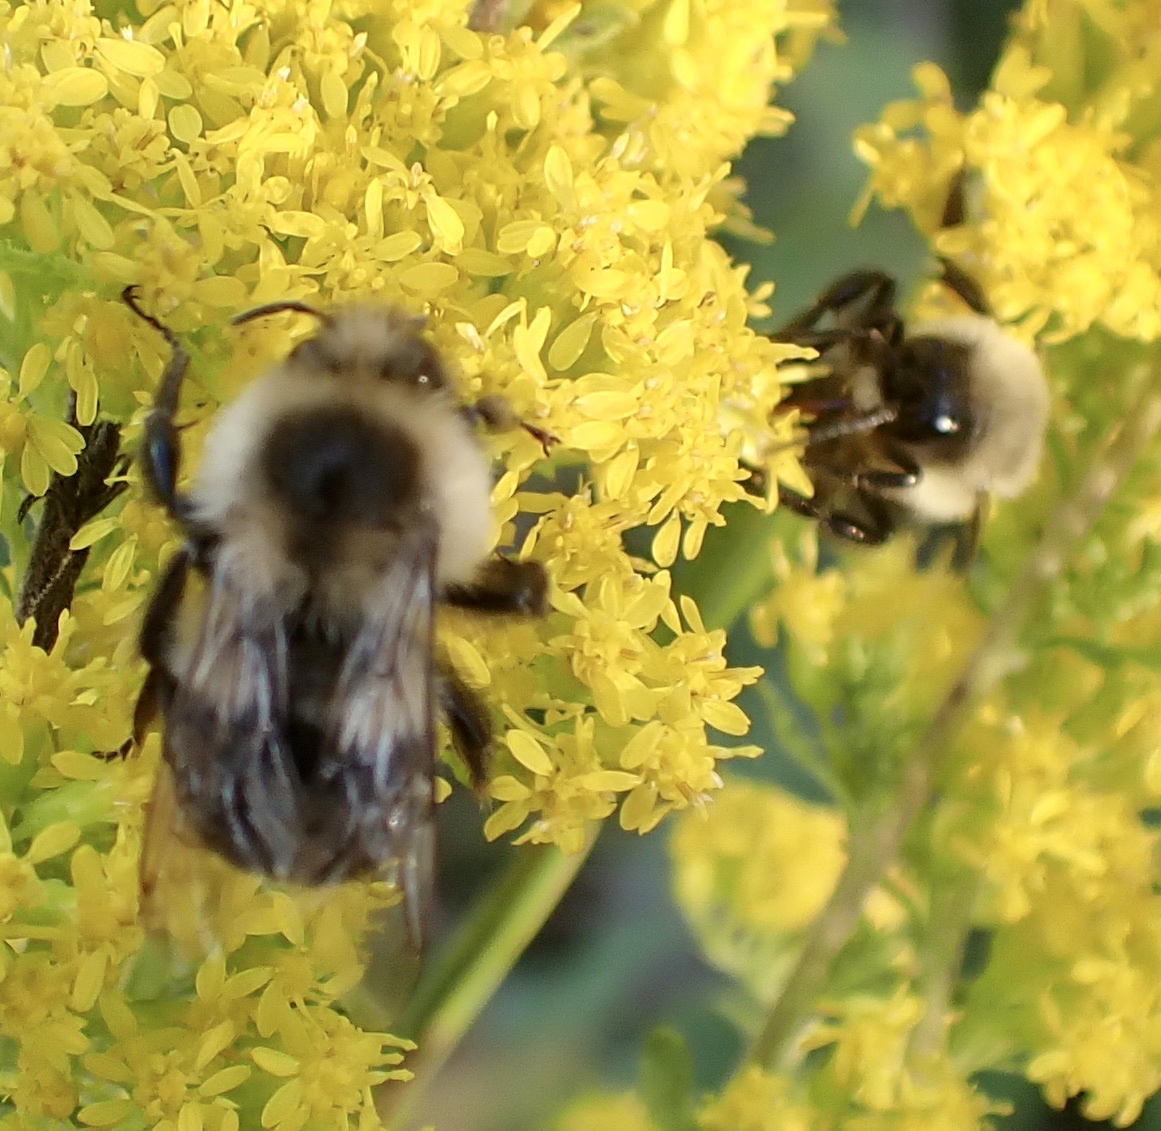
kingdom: Animalia
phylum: Arthropoda
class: Insecta
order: Hymenoptera
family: Apidae
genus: Bombus
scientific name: Bombus impatiens
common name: Common eastern bumble bee
